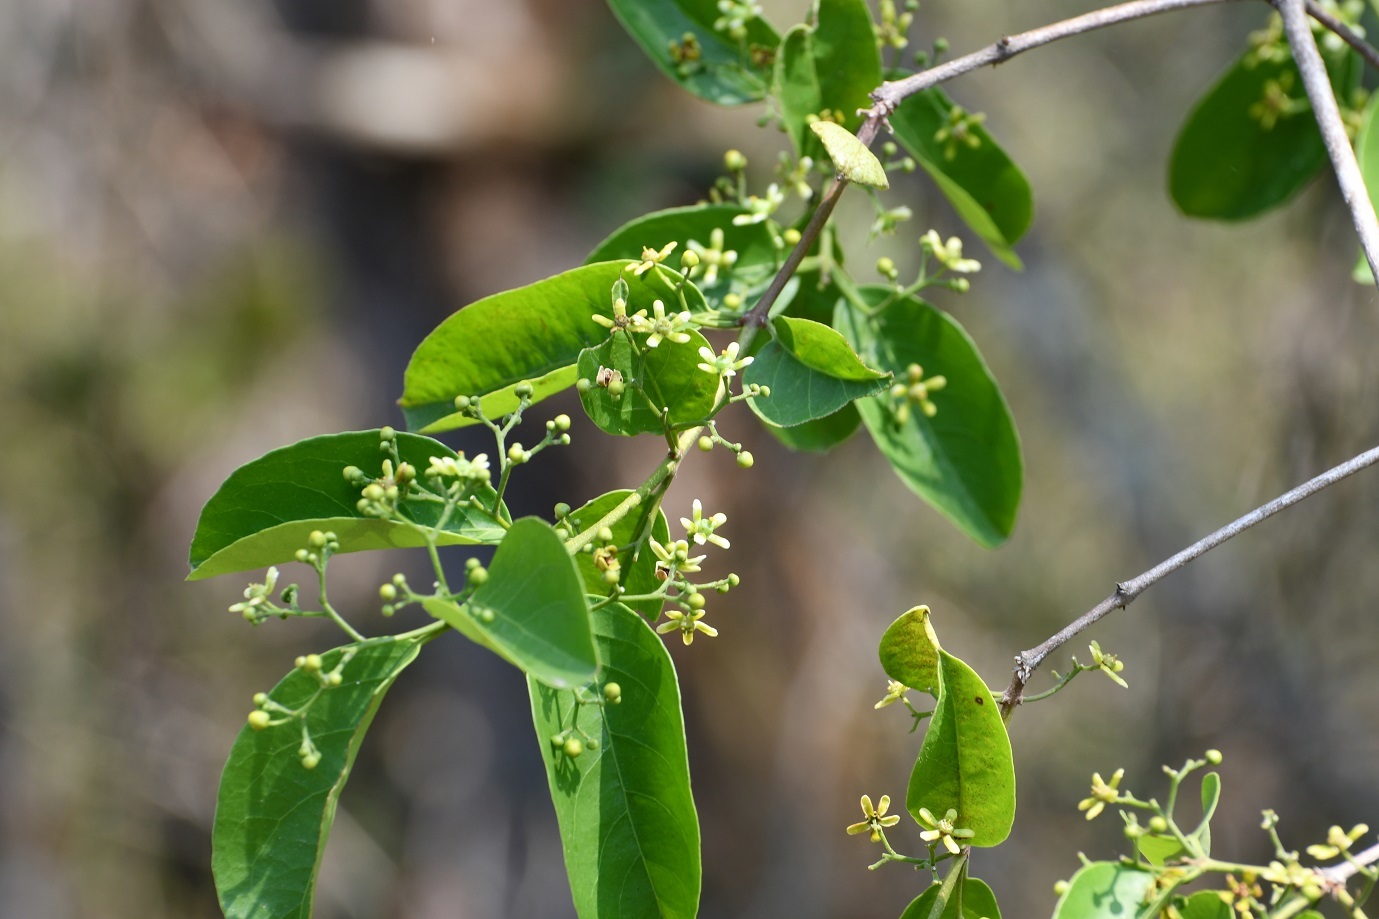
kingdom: Plantae
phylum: Tracheophyta
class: Magnoliopsida
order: Celastrales
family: Celastraceae
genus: Semialarium
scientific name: Semialarium mexicanum
